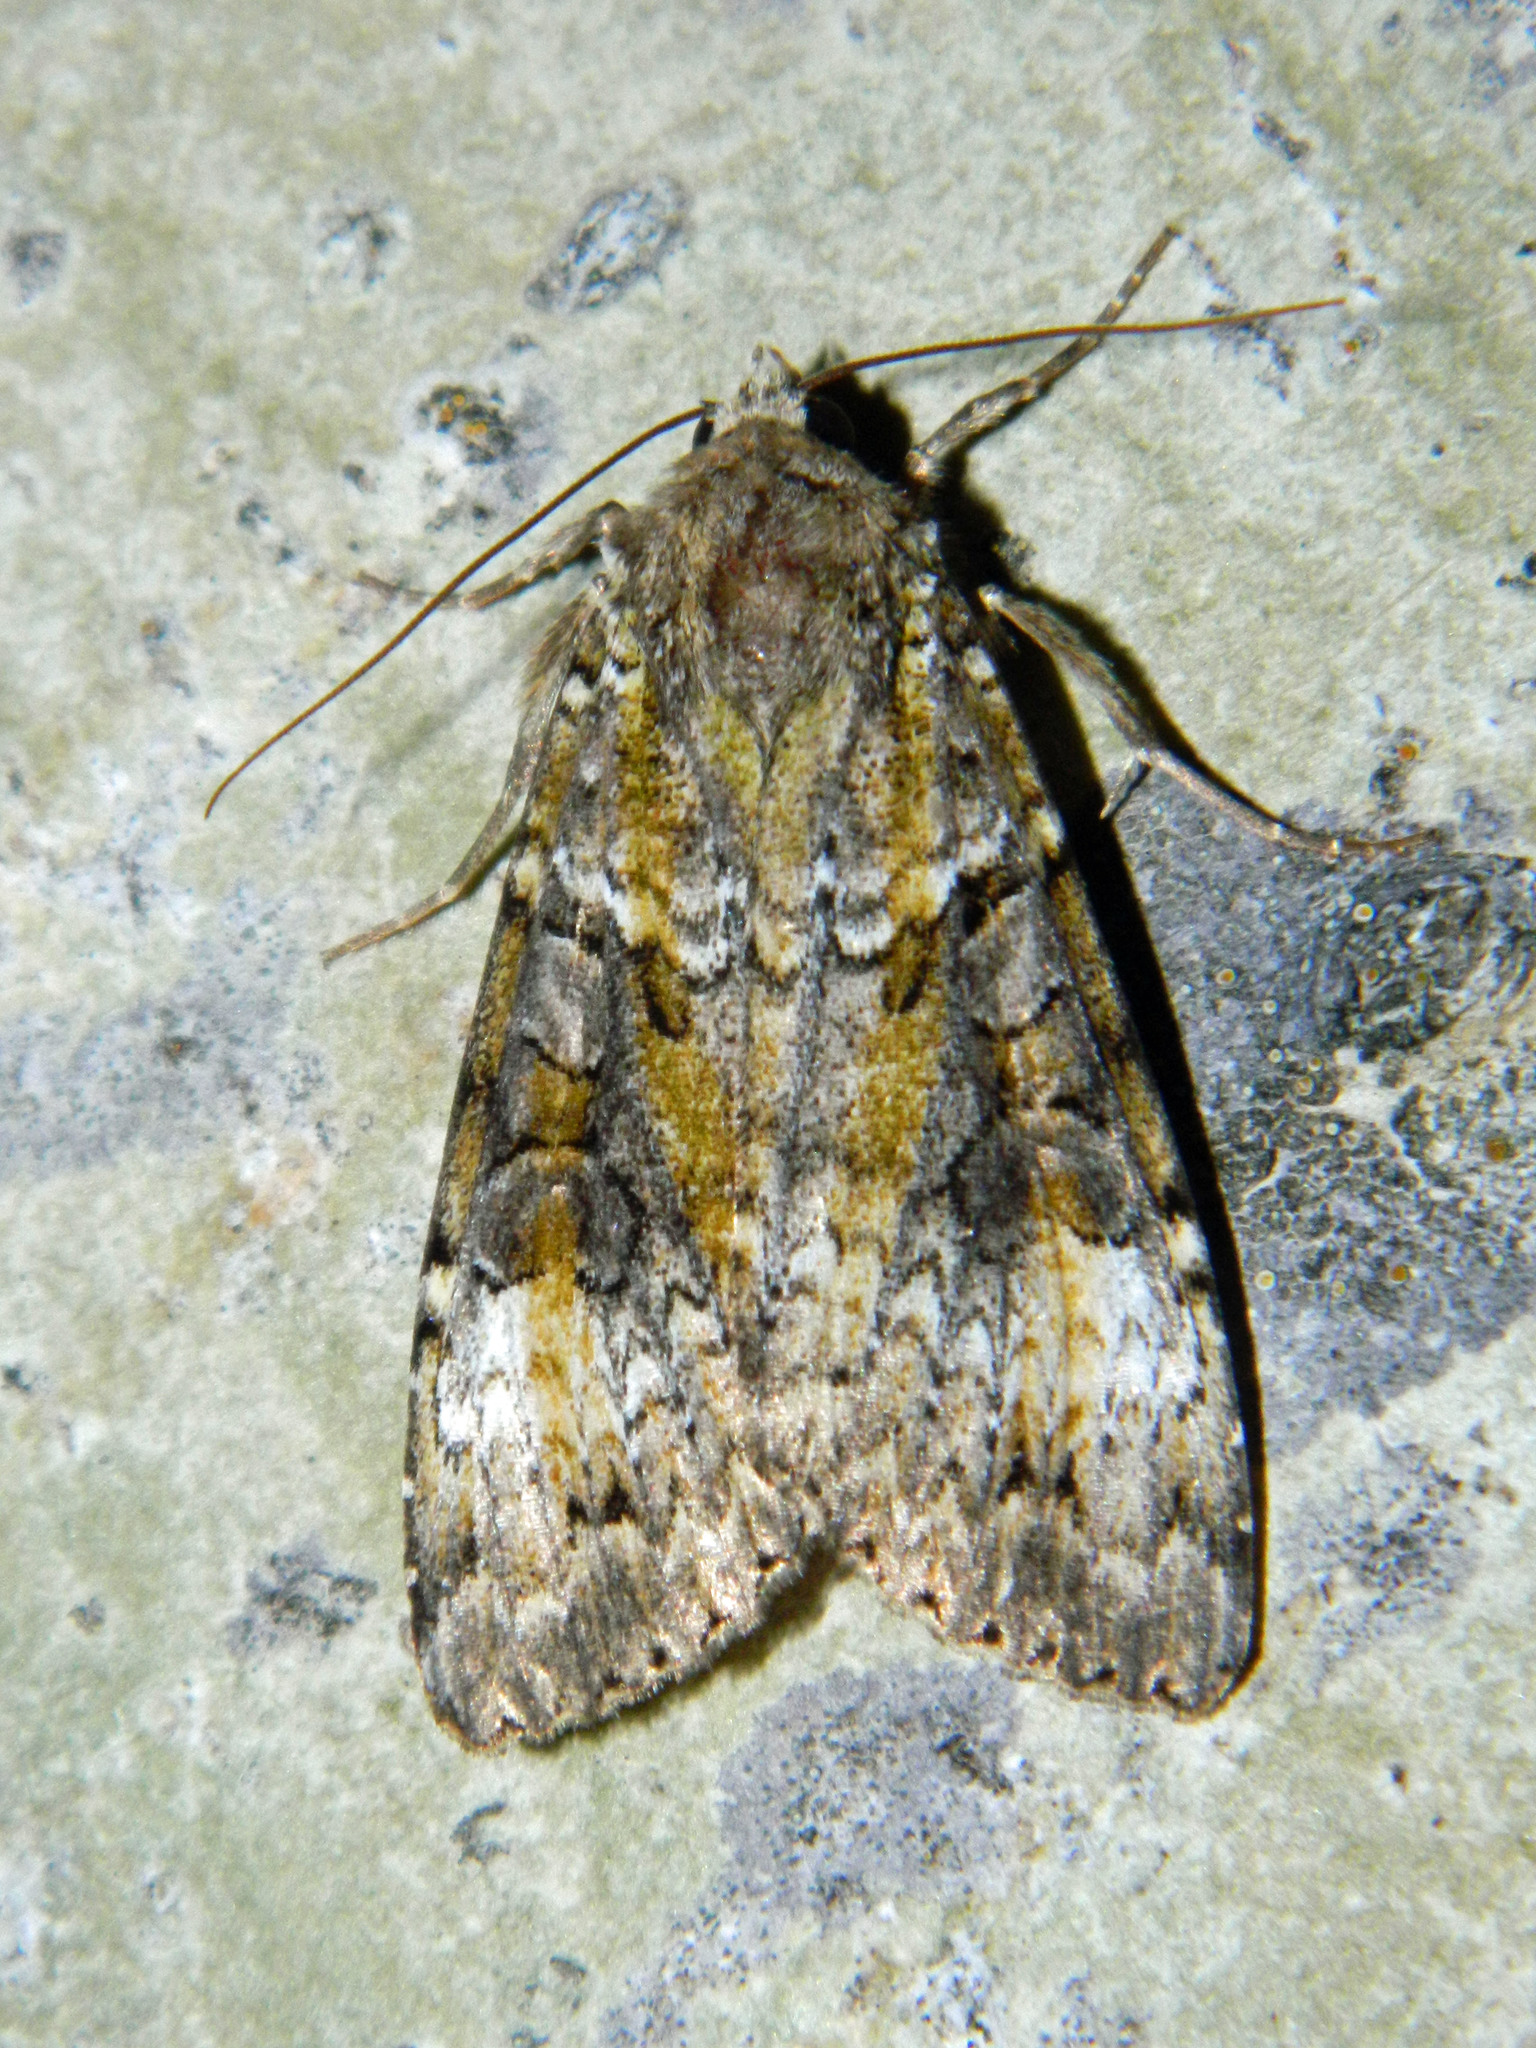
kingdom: Animalia
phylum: Arthropoda
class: Insecta
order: Lepidoptera
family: Noctuidae
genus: Anaplectoides
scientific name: Anaplectoides prasina
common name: Green arches
